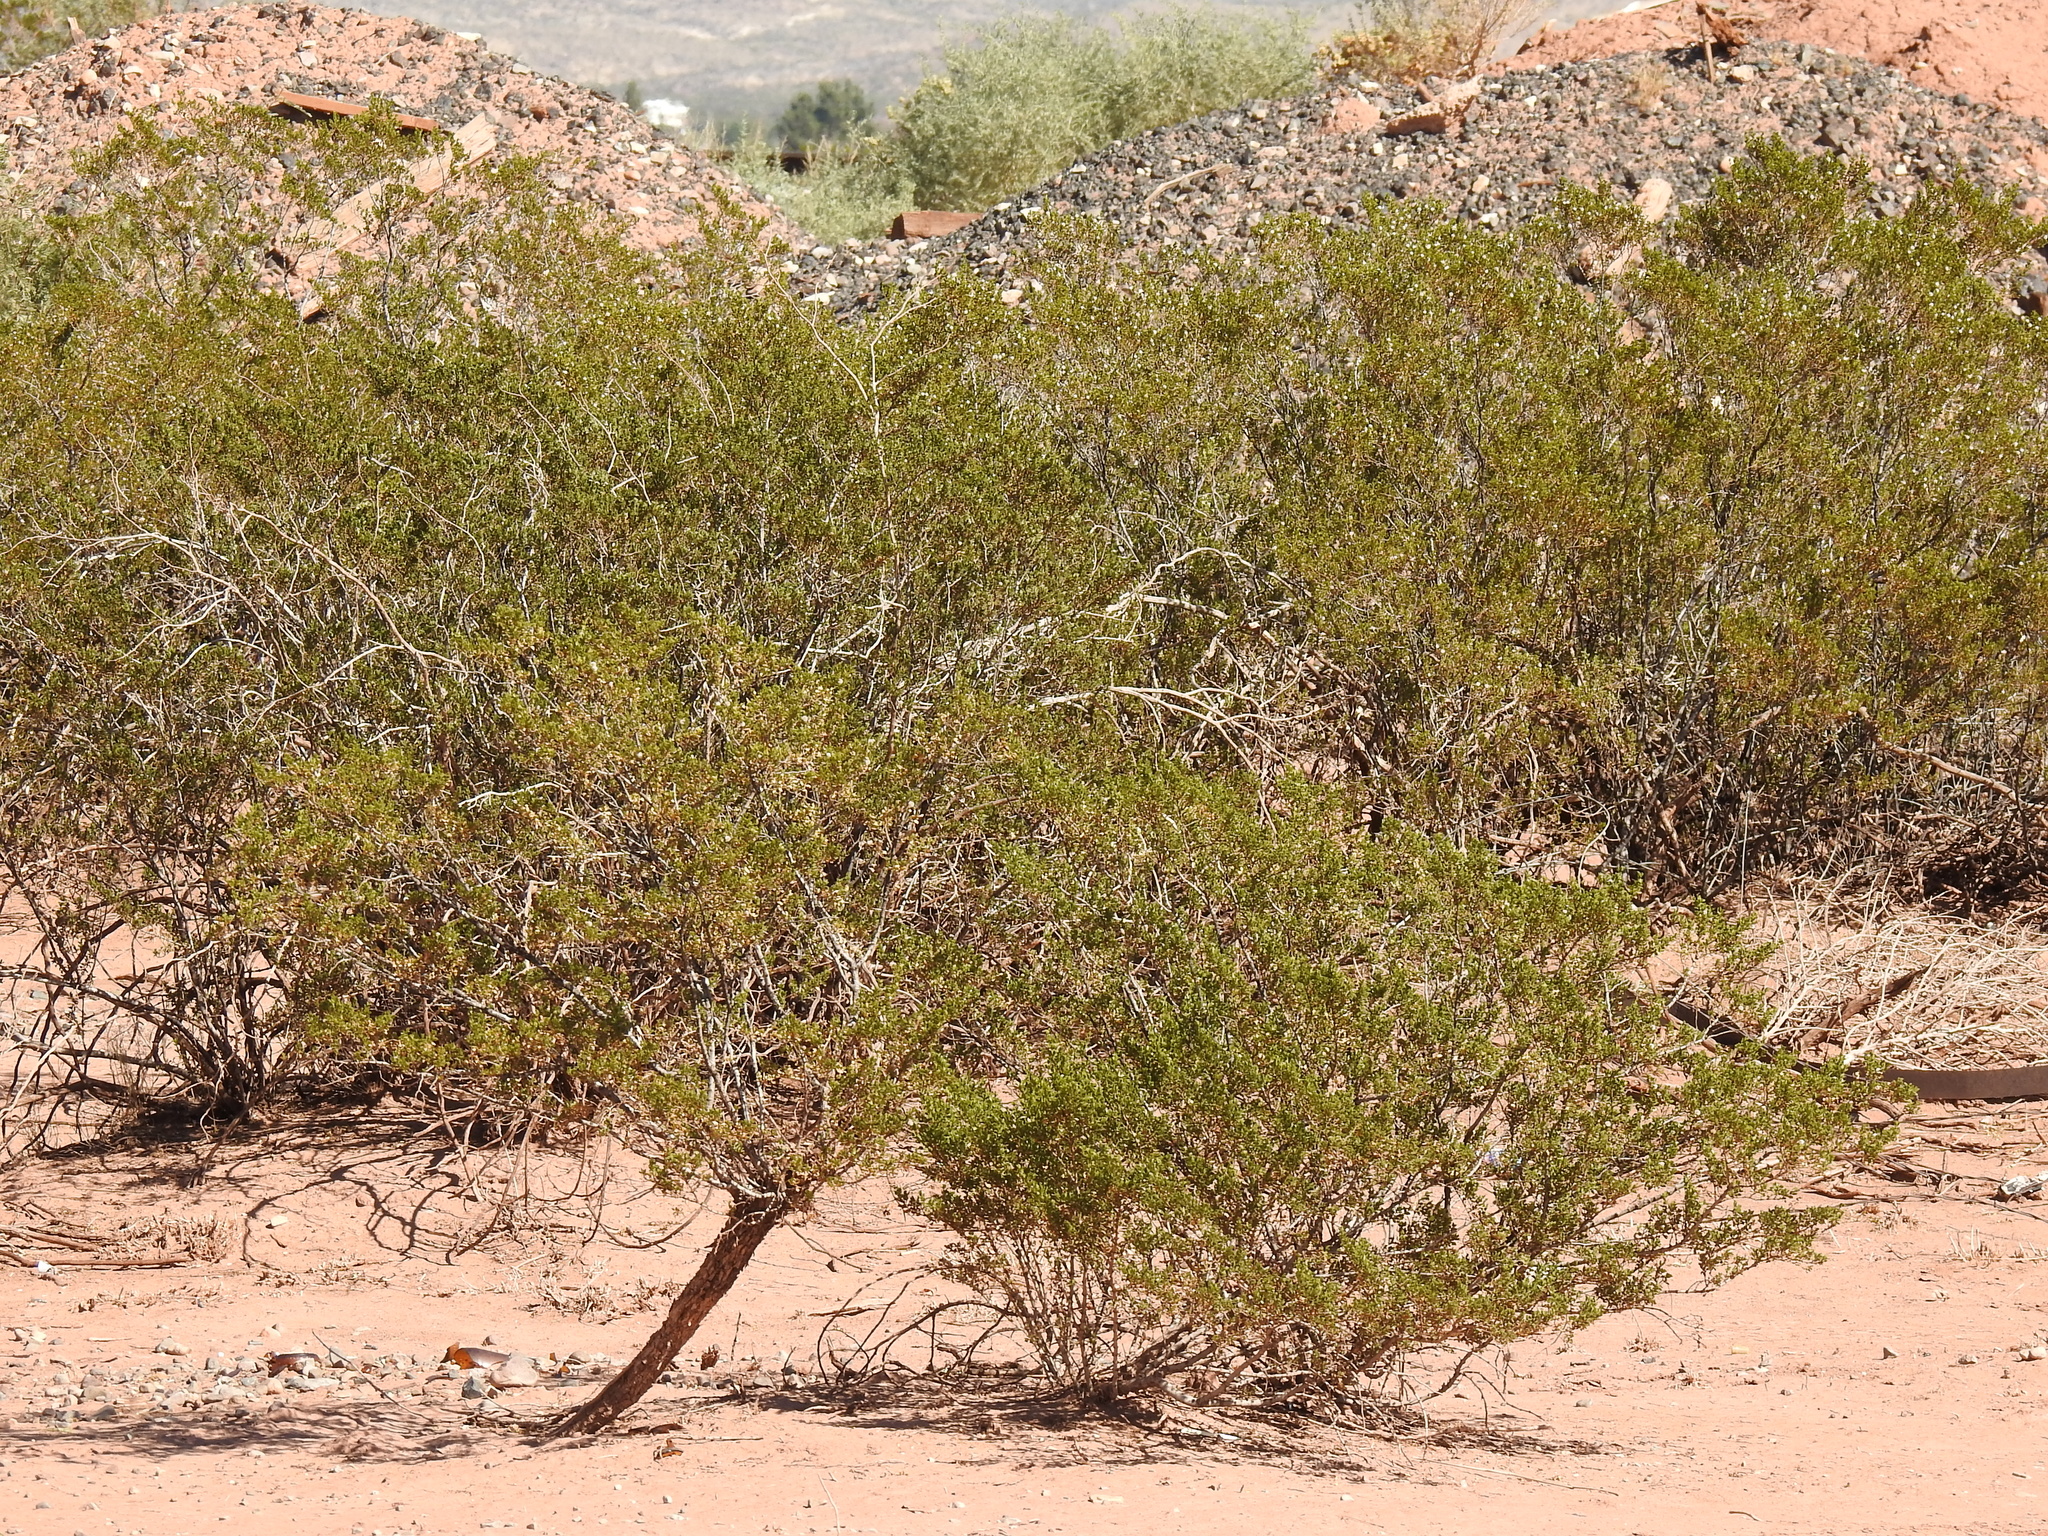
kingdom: Plantae
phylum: Tracheophyta
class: Magnoliopsida
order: Zygophyllales
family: Zygophyllaceae
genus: Larrea
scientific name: Larrea tridentata
